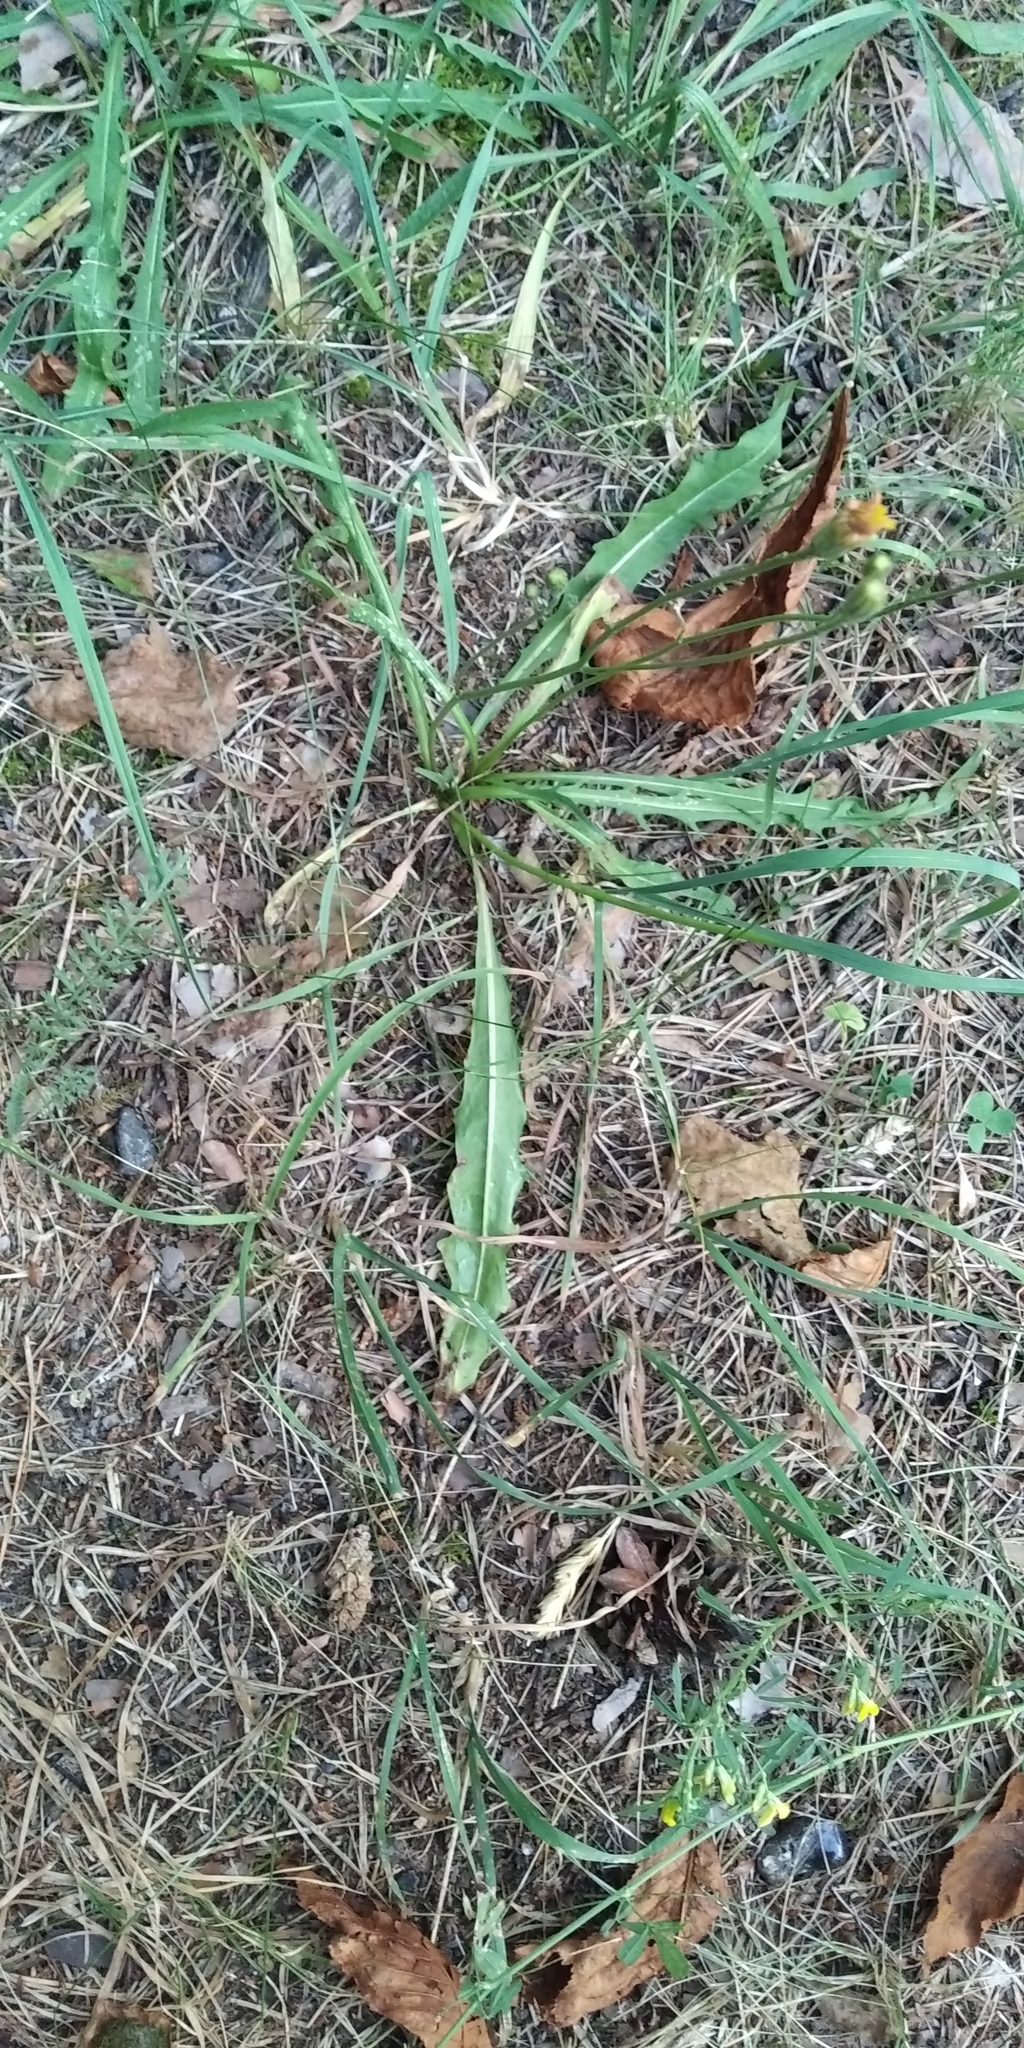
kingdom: Plantae
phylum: Tracheophyta
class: Magnoliopsida
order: Asterales
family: Asteraceae
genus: Scorzoneroides
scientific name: Scorzoneroides autumnalis
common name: Autumn hawkbit
